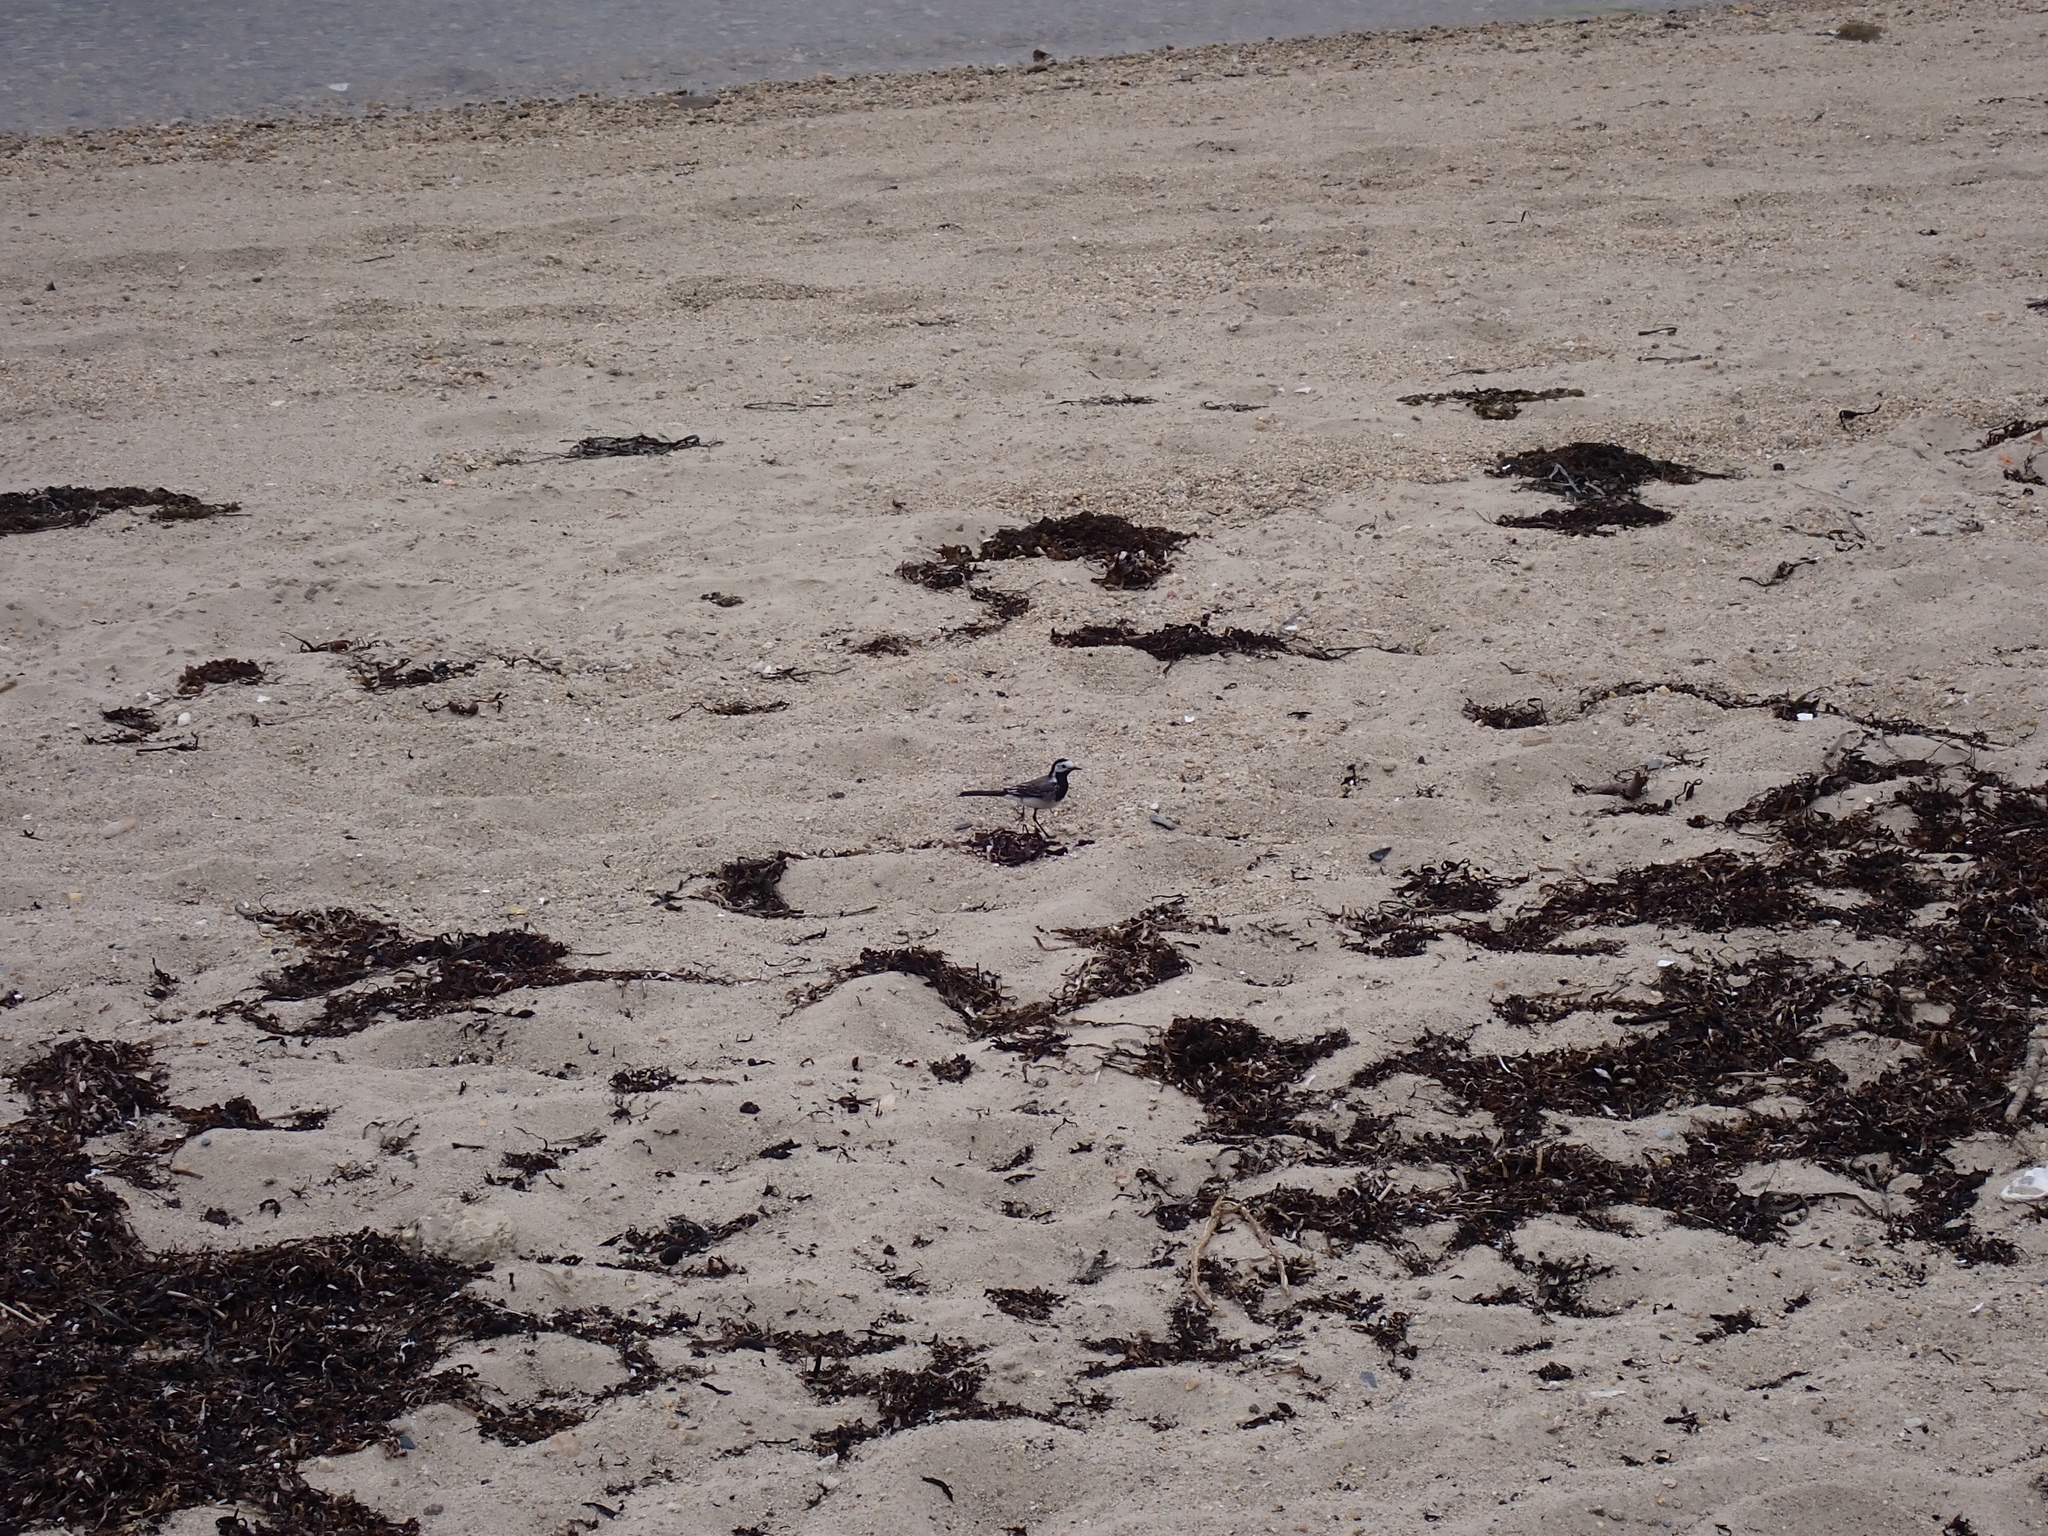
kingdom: Animalia
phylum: Chordata
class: Aves
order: Passeriformes
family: Motacillidae
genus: Motacilla
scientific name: Motacilla alba
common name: White wagtail
